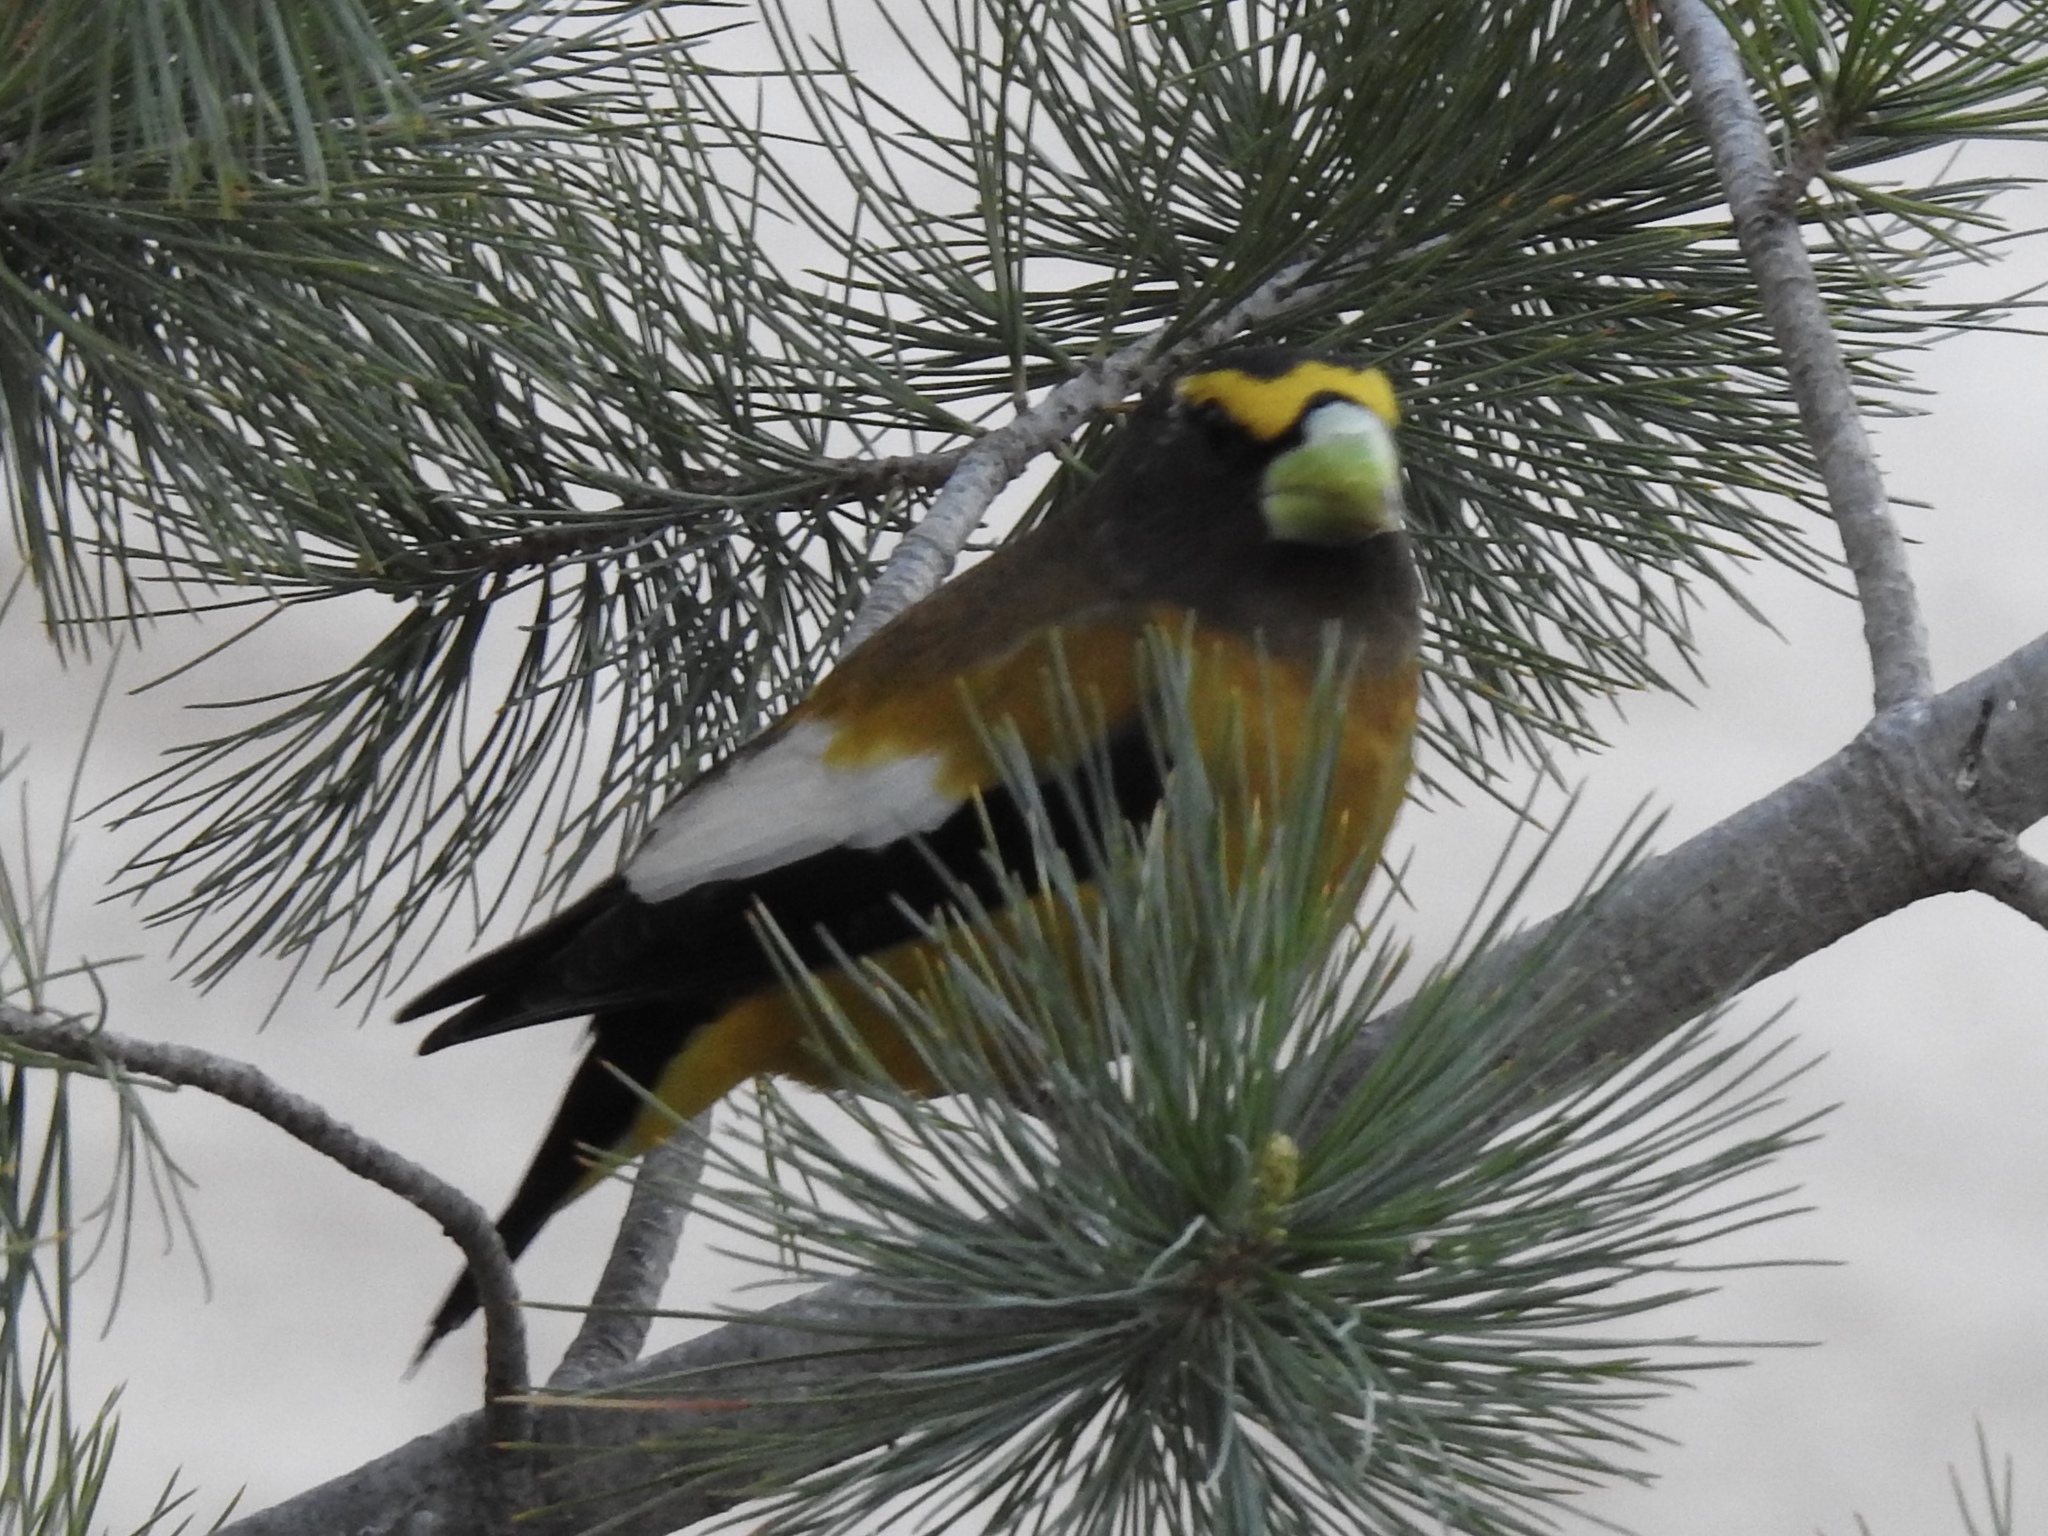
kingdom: Animalia
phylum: Chordata
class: Aves
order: Passeriformes
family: Fringillidae
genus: Hesperiphona
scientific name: Hesperiphona vespertina
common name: Evening grosbeak
